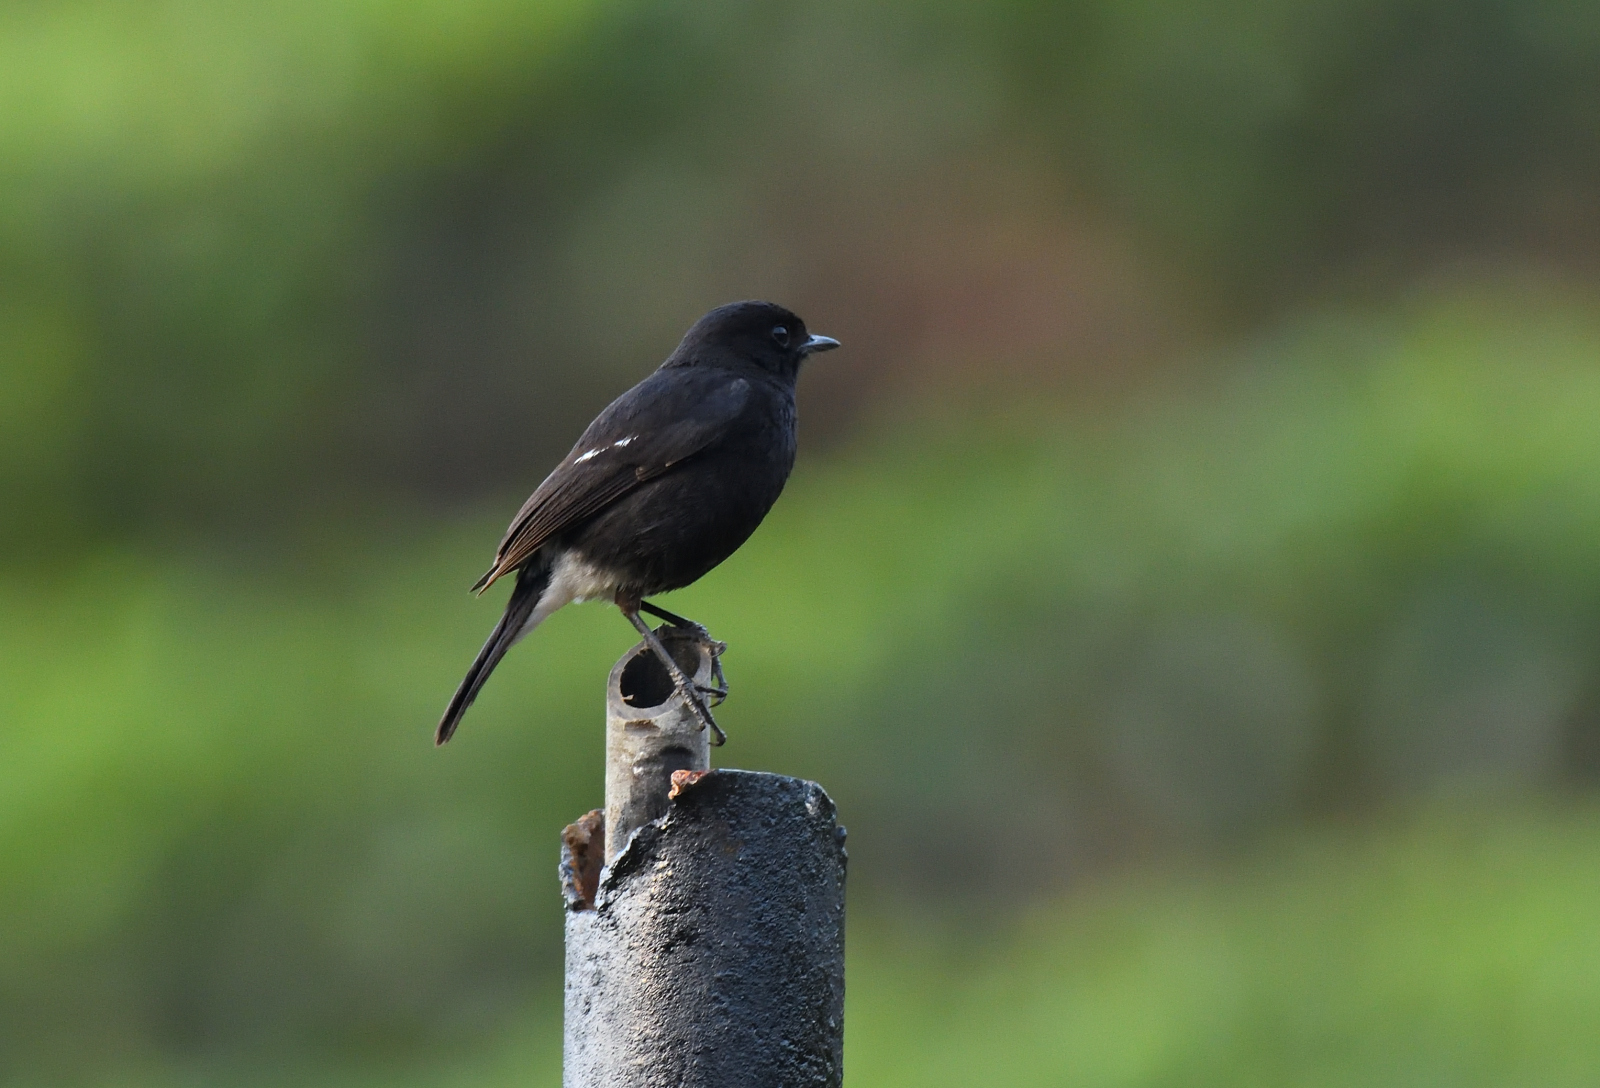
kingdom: Animalia
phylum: Chordata
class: Aves
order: Passeriformes
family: Muscicapidae
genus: Saxicola
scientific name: Saxicola caprata
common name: Pied bush chat
